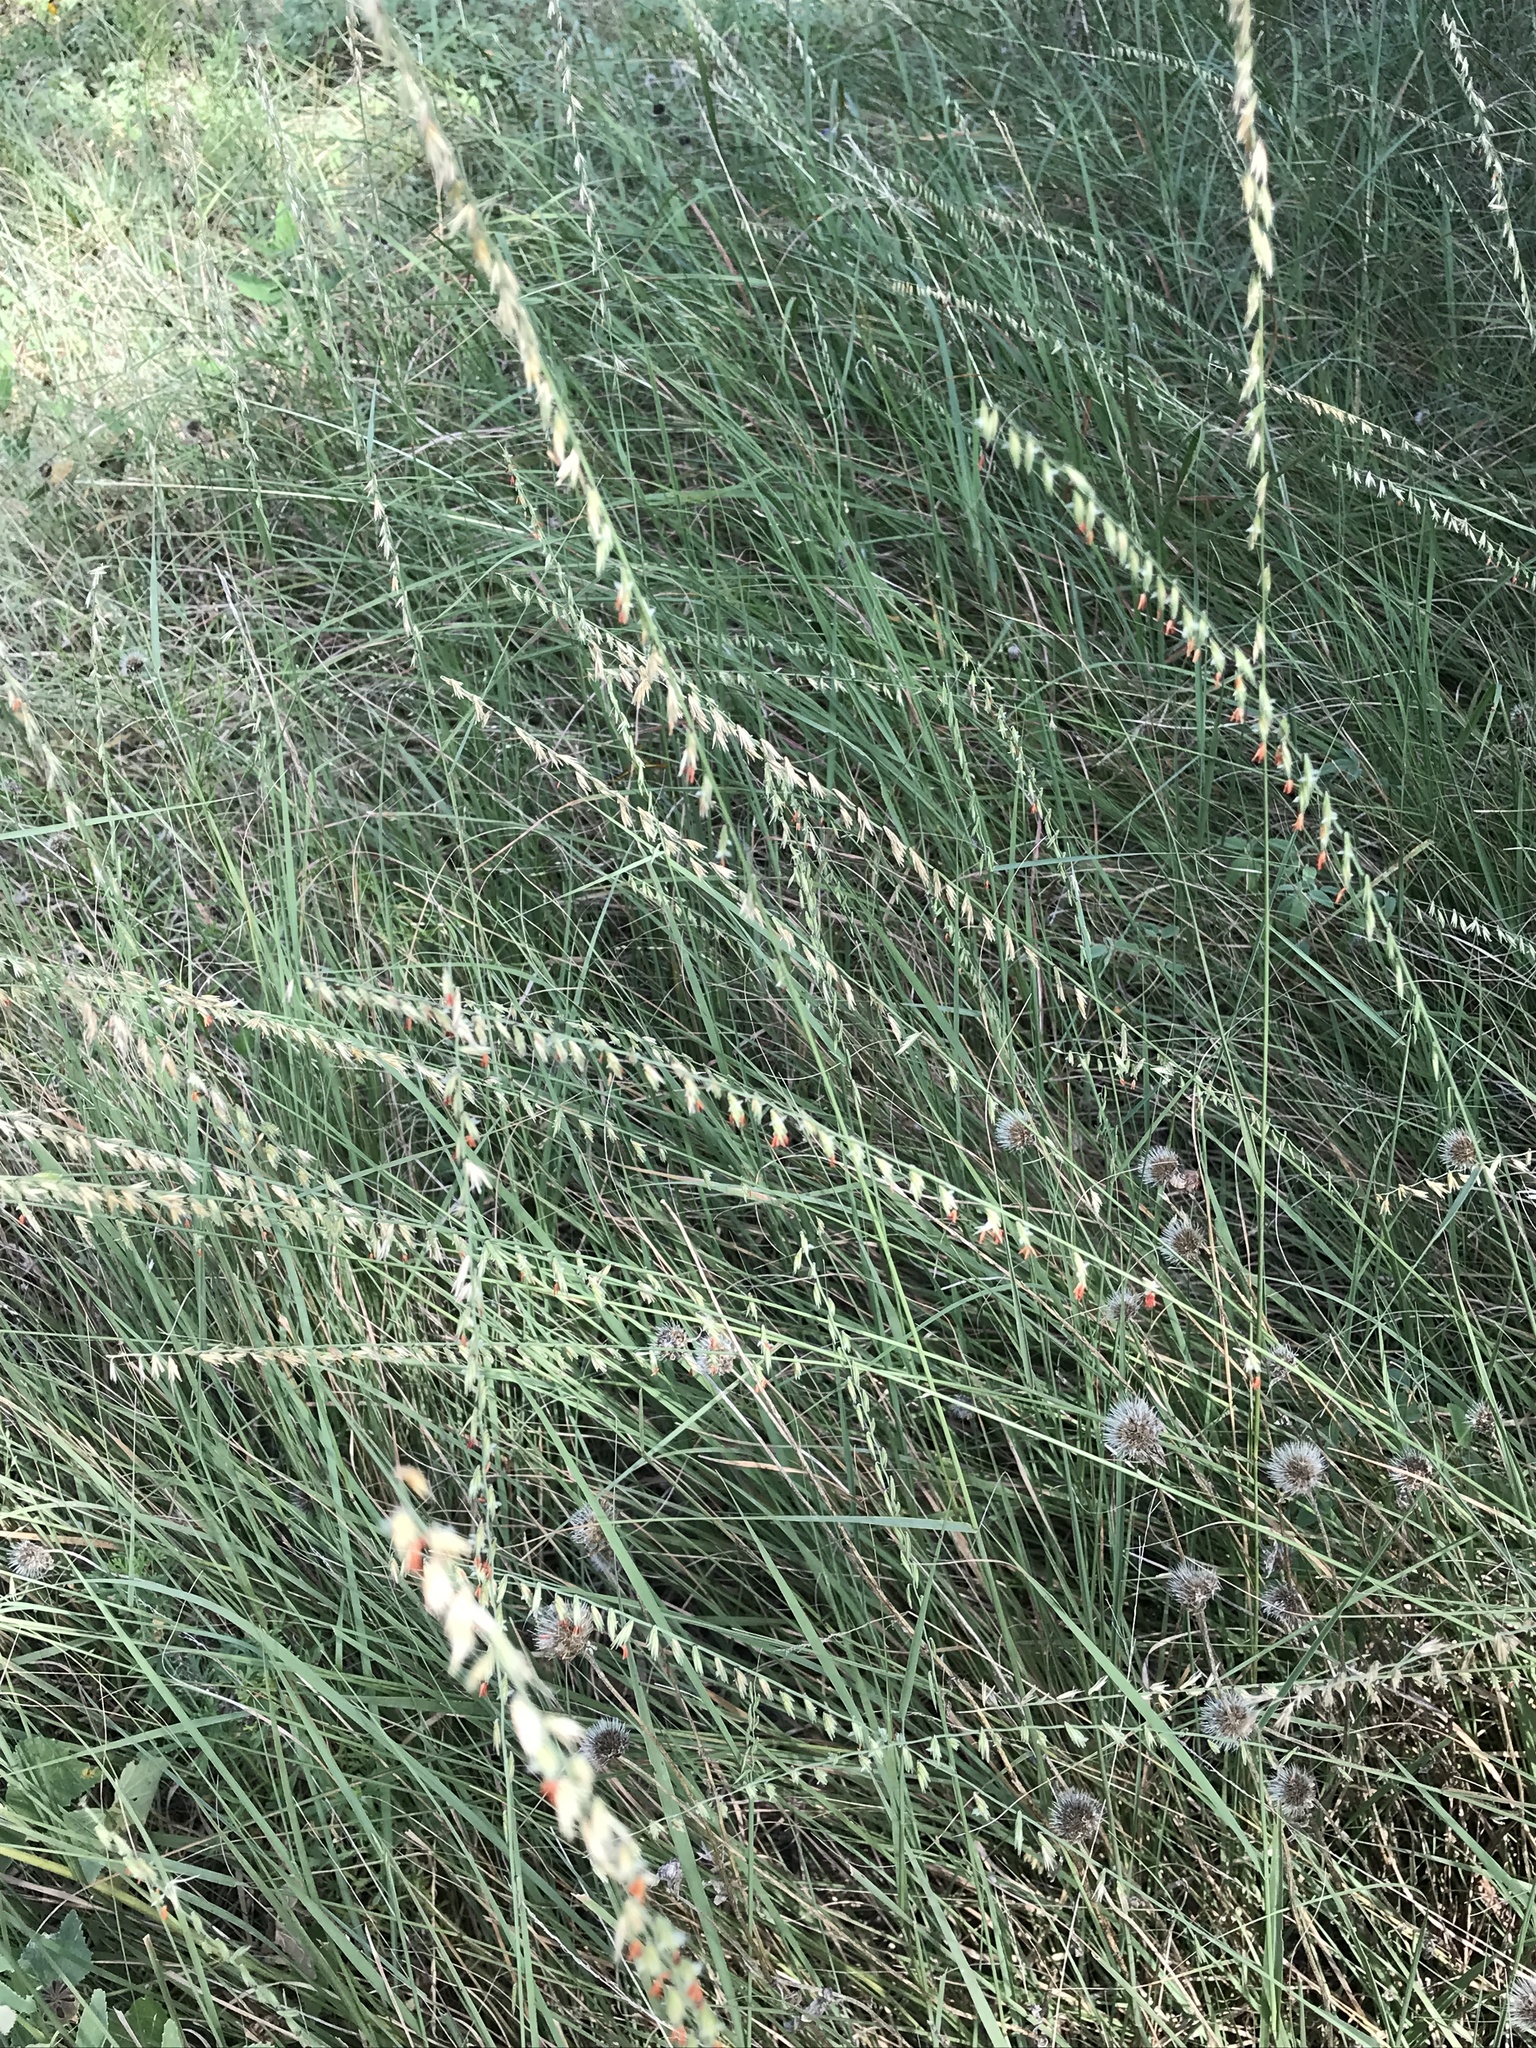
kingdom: Plantae
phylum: Tracheophyta
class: Liliopsida
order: Poales
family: Poaceae
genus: Bouteloua
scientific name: Bouteloua curtipendula
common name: Side-oats grama
